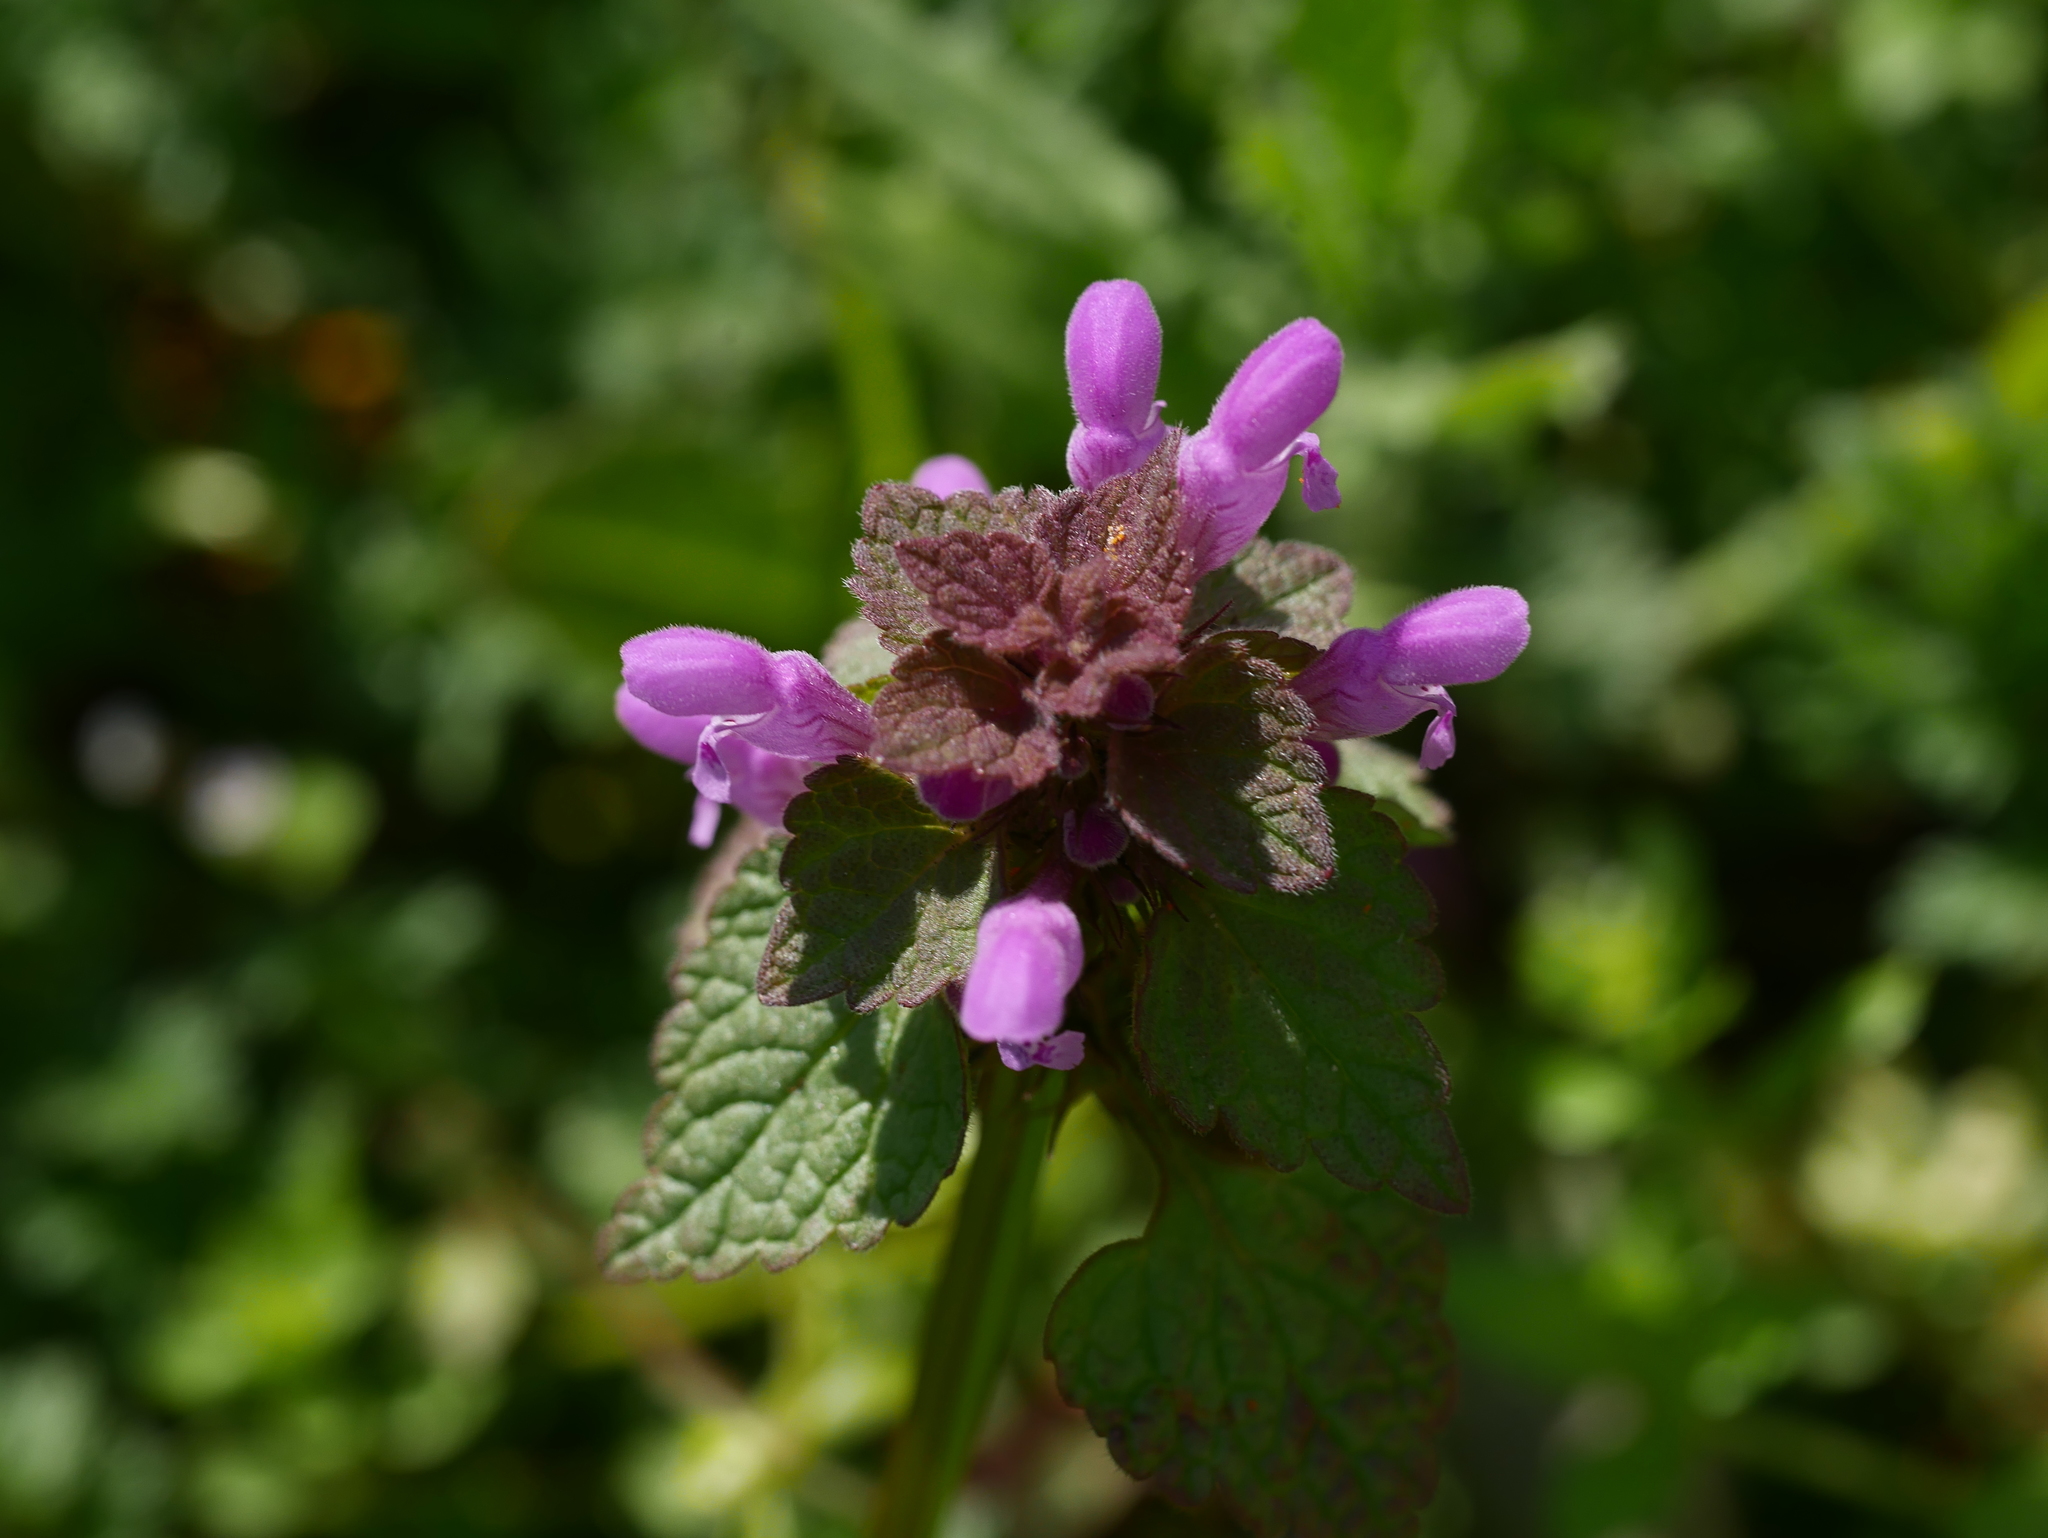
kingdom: Plantae
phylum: Tracheophyta
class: Magnoliopsida
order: Lamiales
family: Lamiaceae
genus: Lamium
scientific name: Lamium purpureum
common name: Red dead-nettle
